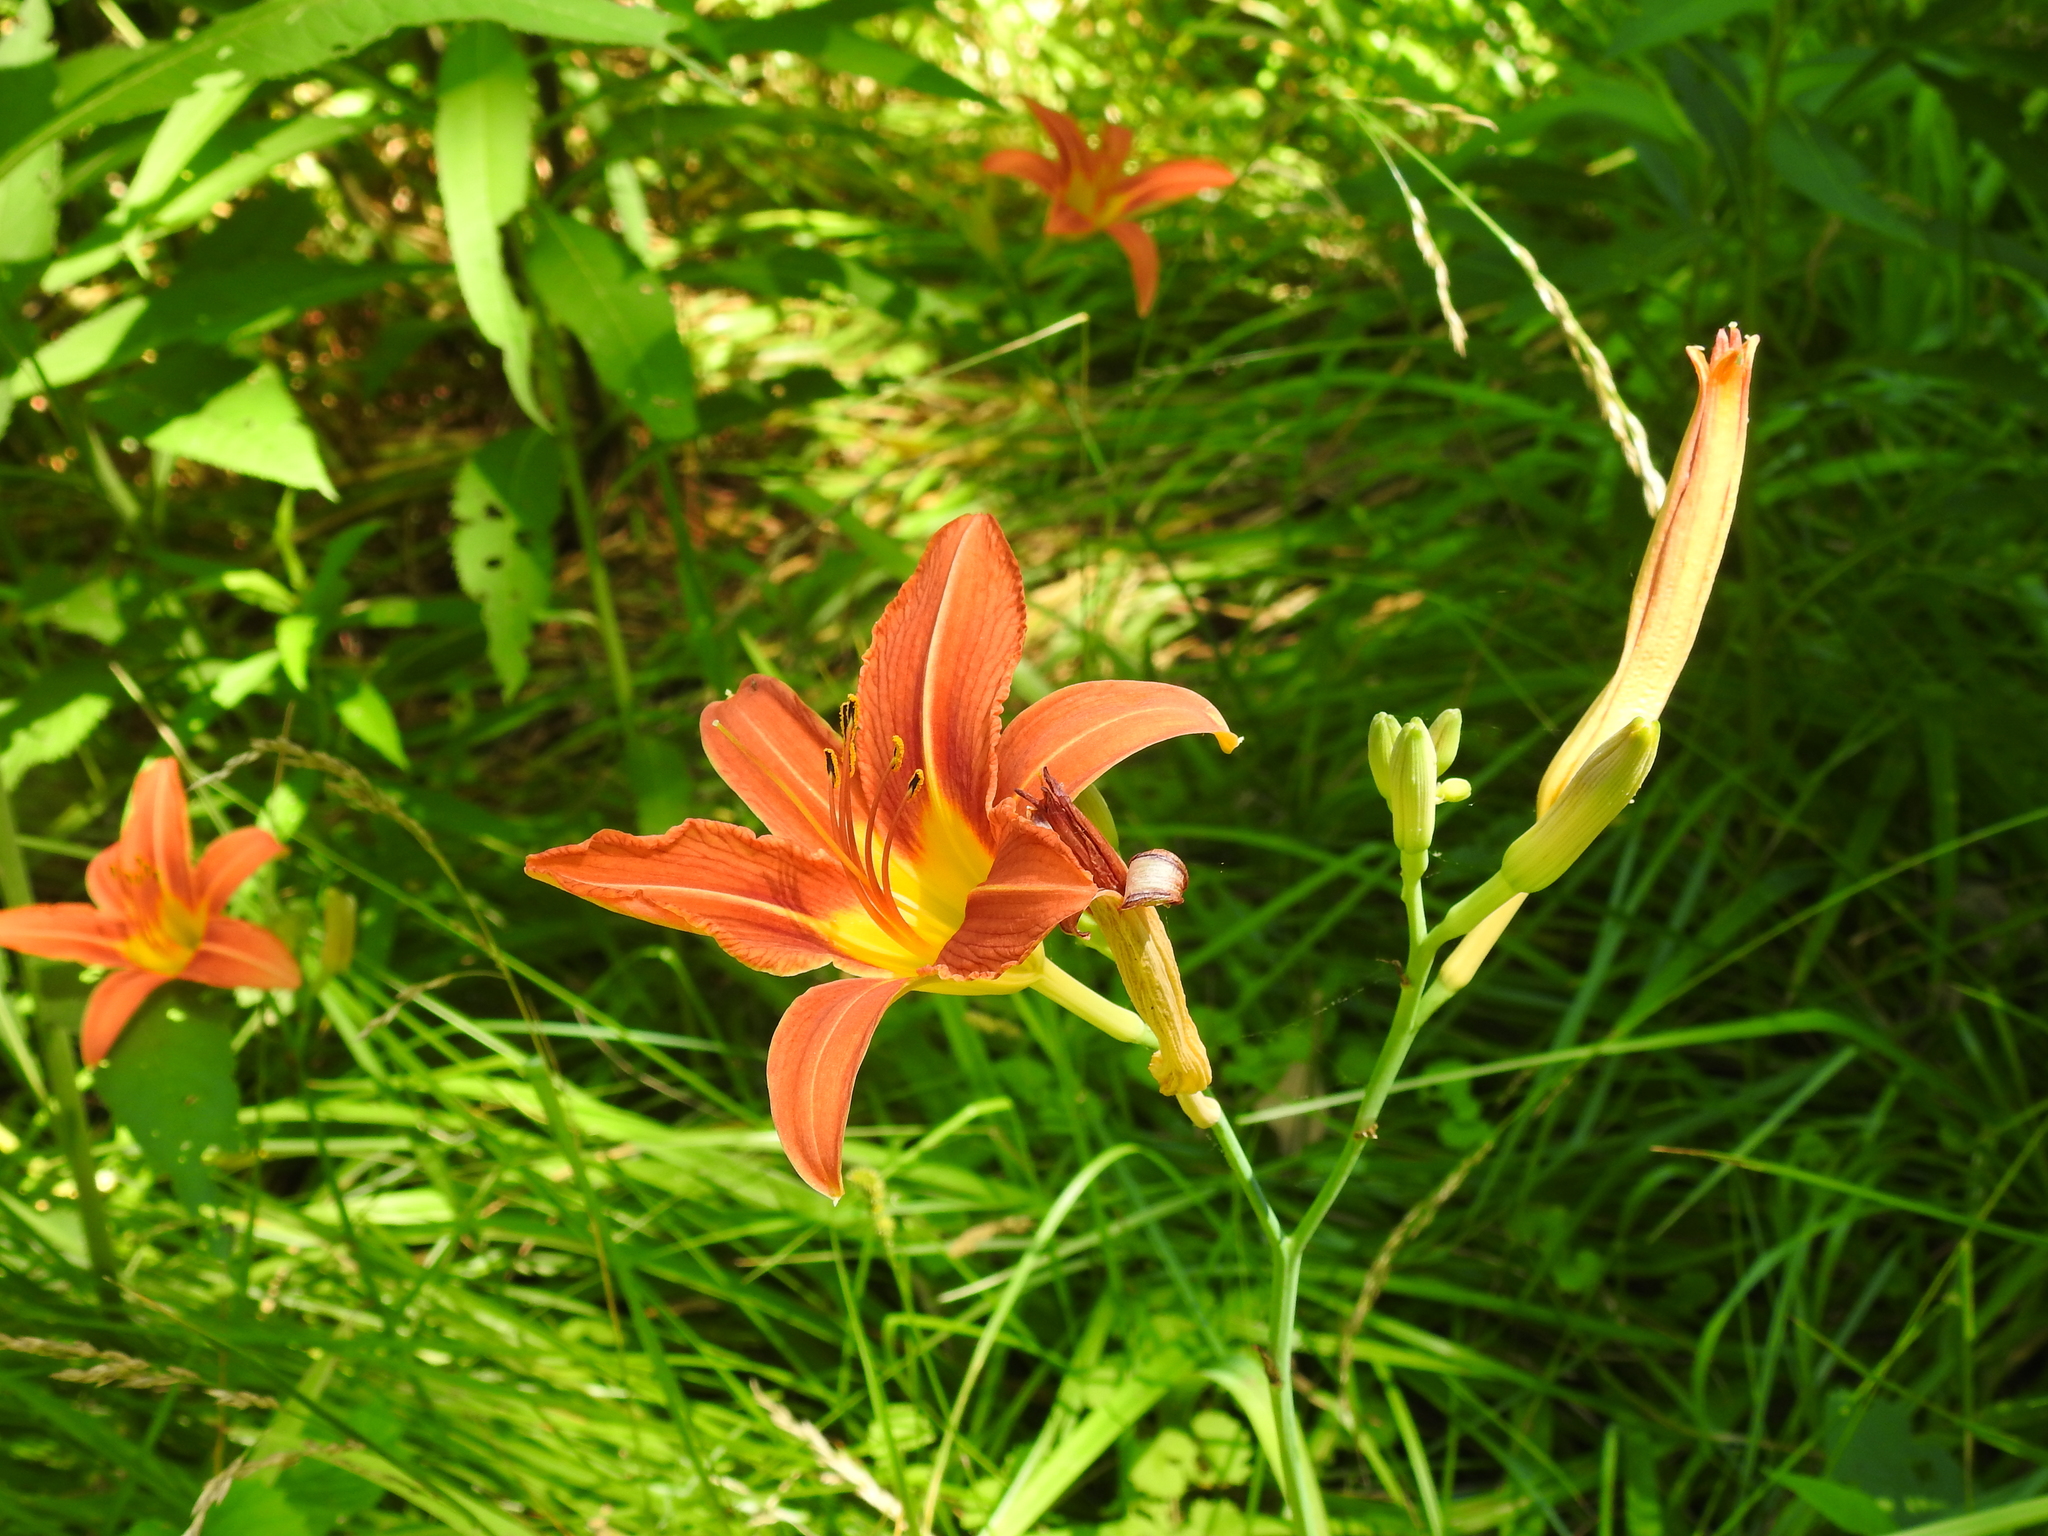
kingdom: Plantae
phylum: Tracheophyta
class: Liliopsida
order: Asparagales
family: Asphodelaceae
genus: Hemerocallis
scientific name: Hemerocallis fulva
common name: Orange day-lily
